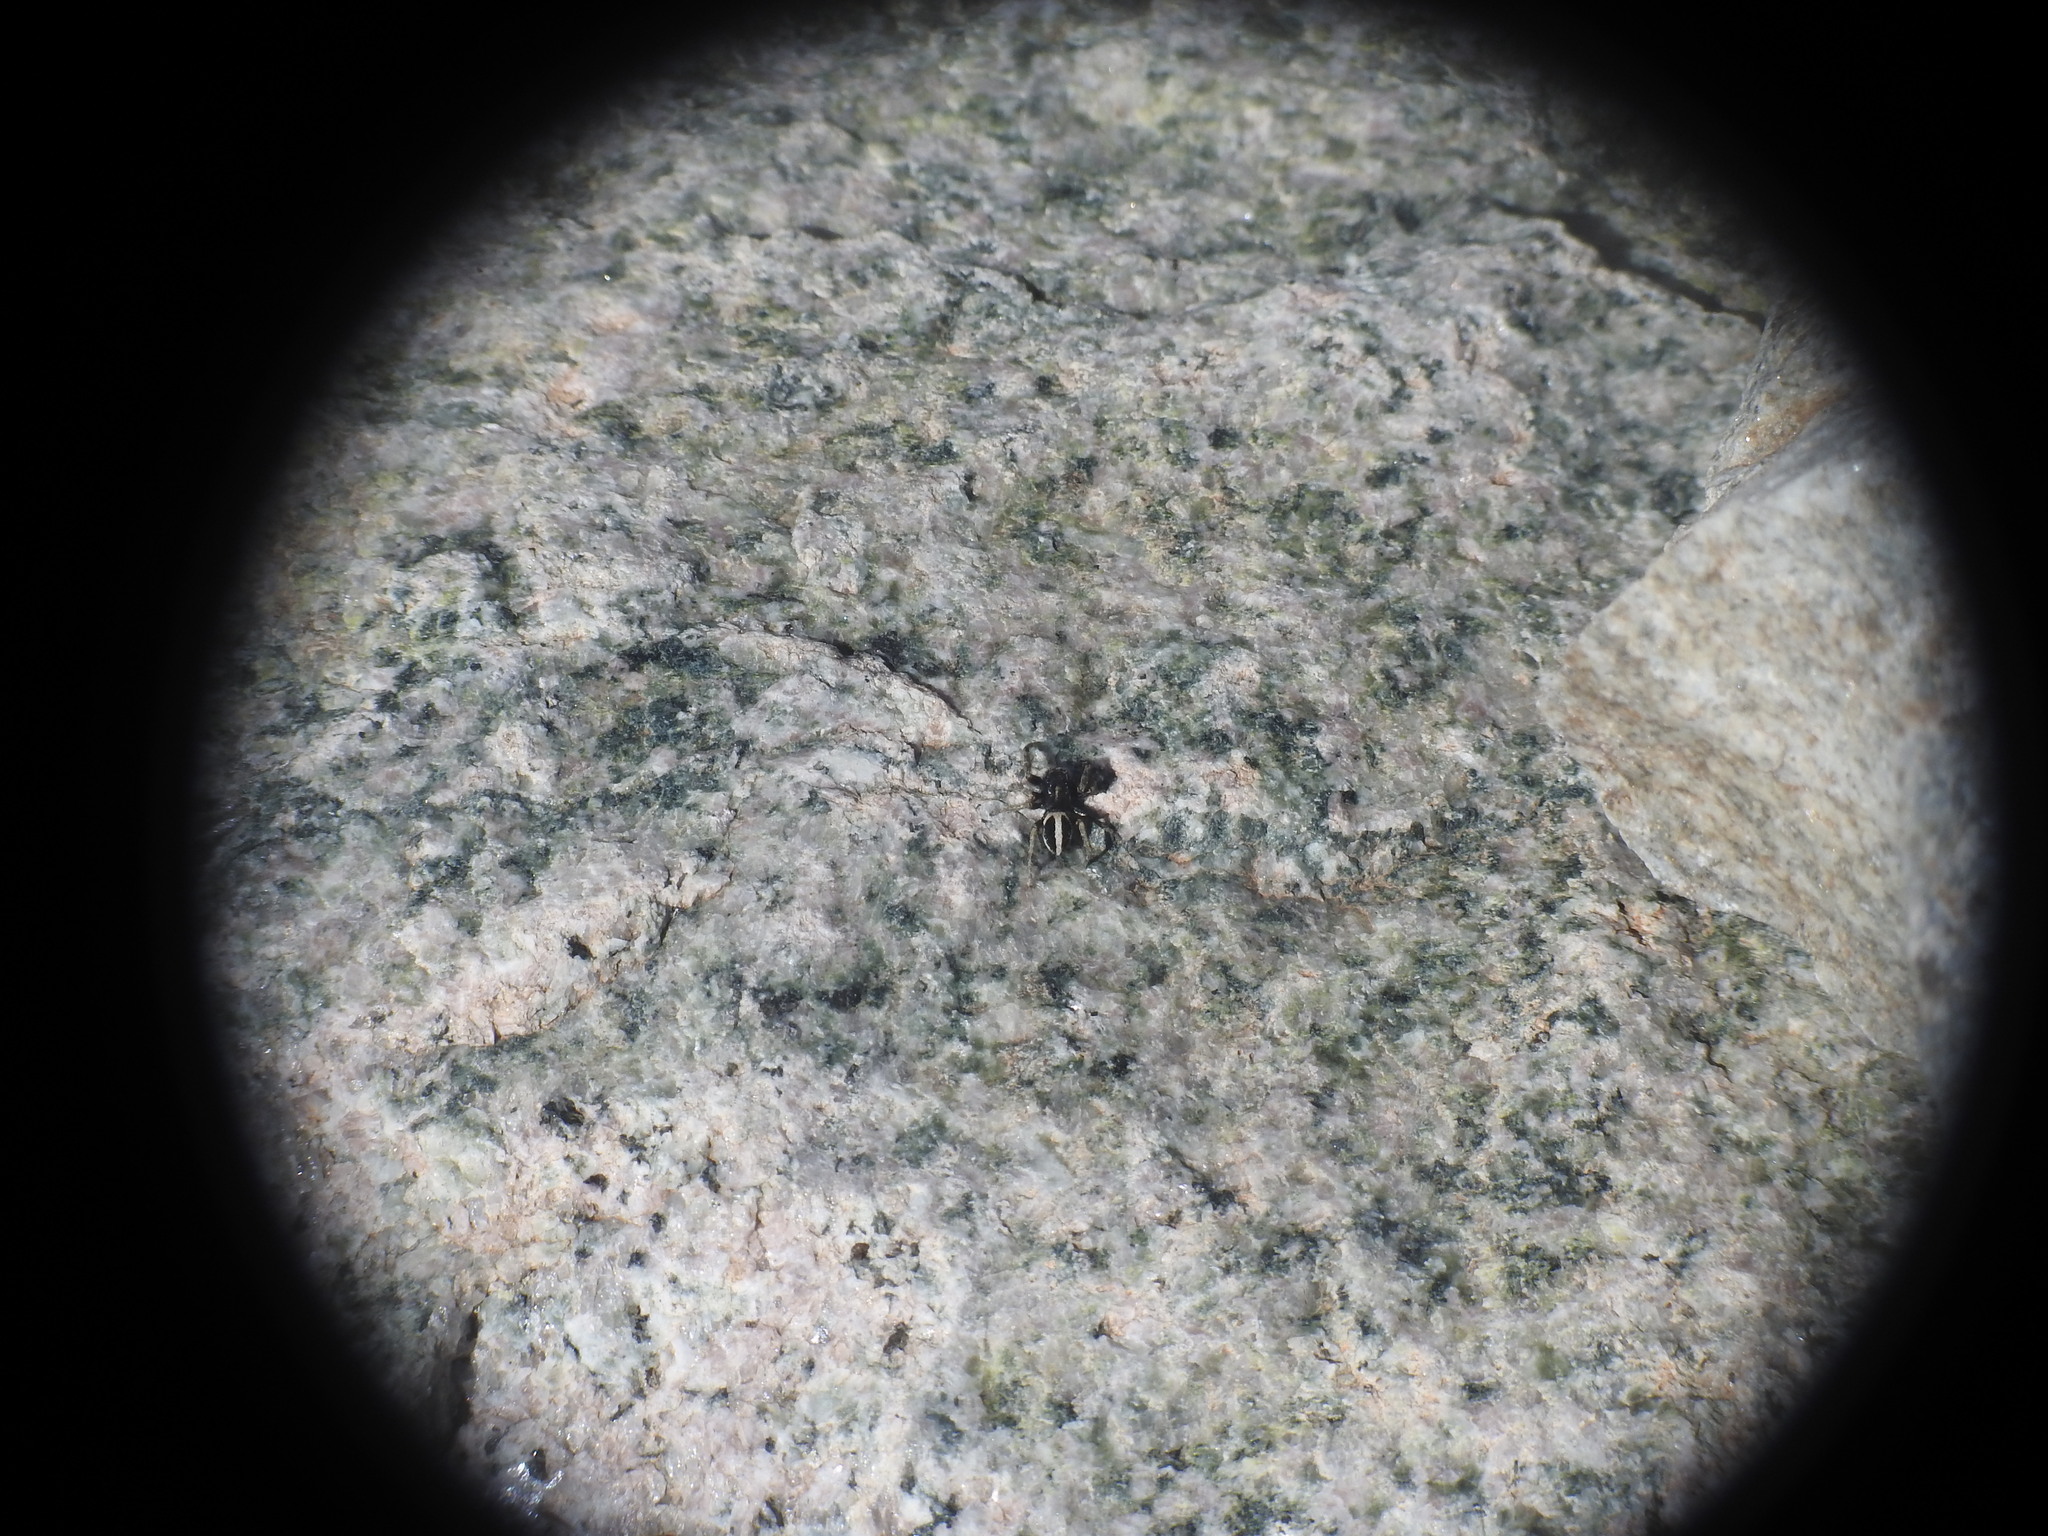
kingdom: Animalia
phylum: Arthropoda
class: Arachnida
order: Araneae
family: Salticidae
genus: Attulus
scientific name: Attulus longipes
